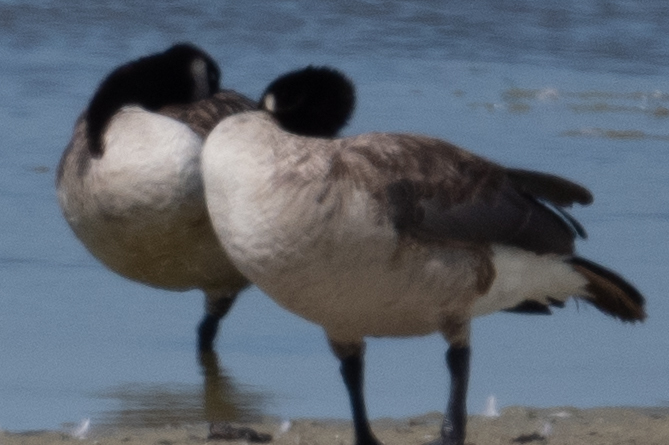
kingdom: Animalia
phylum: Chordata
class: Aves
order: Anseriformes
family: Anatidae
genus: Branta
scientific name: Branta canadensis
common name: Canada goose
